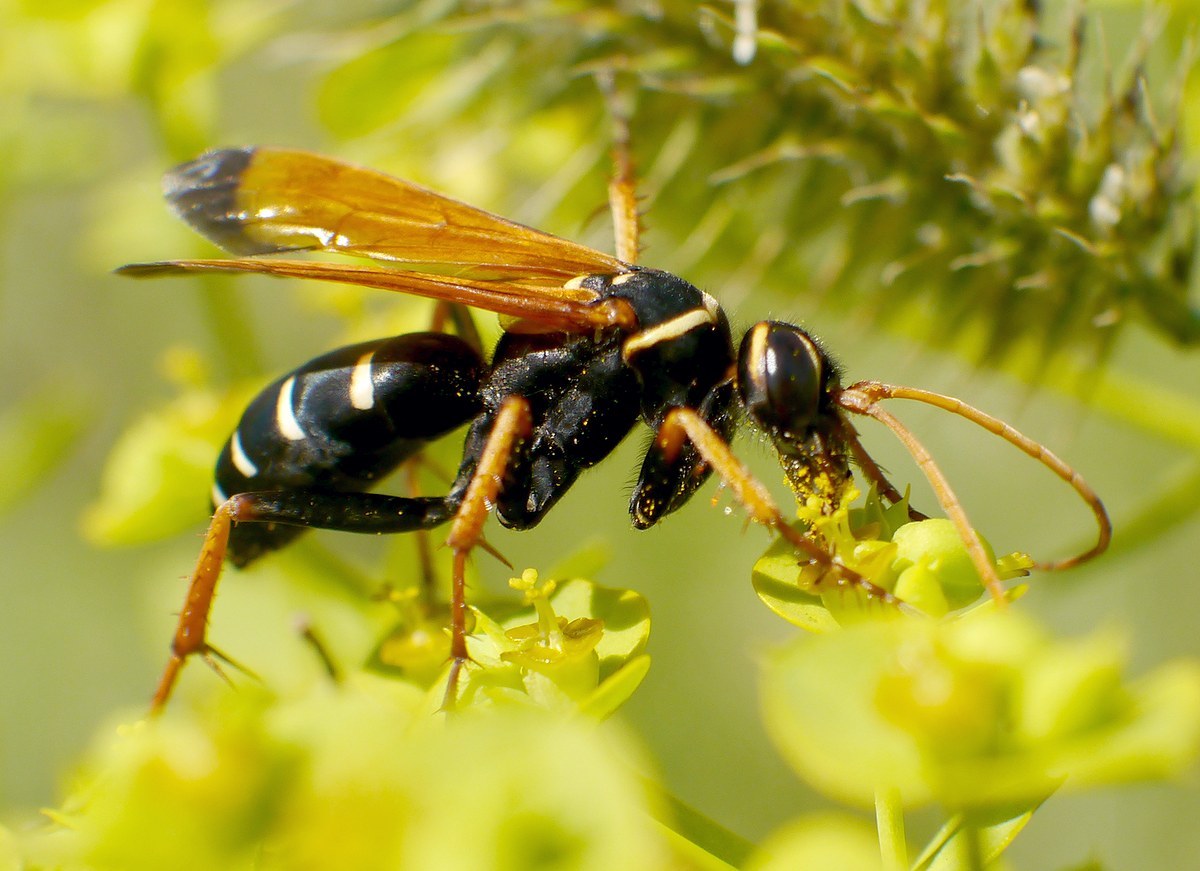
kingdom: Animalia
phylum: Arthropoda
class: Insecta
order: Hymenoptera
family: Pompilidae
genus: Parabatozonus
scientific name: Parabatozonus lacerticida
